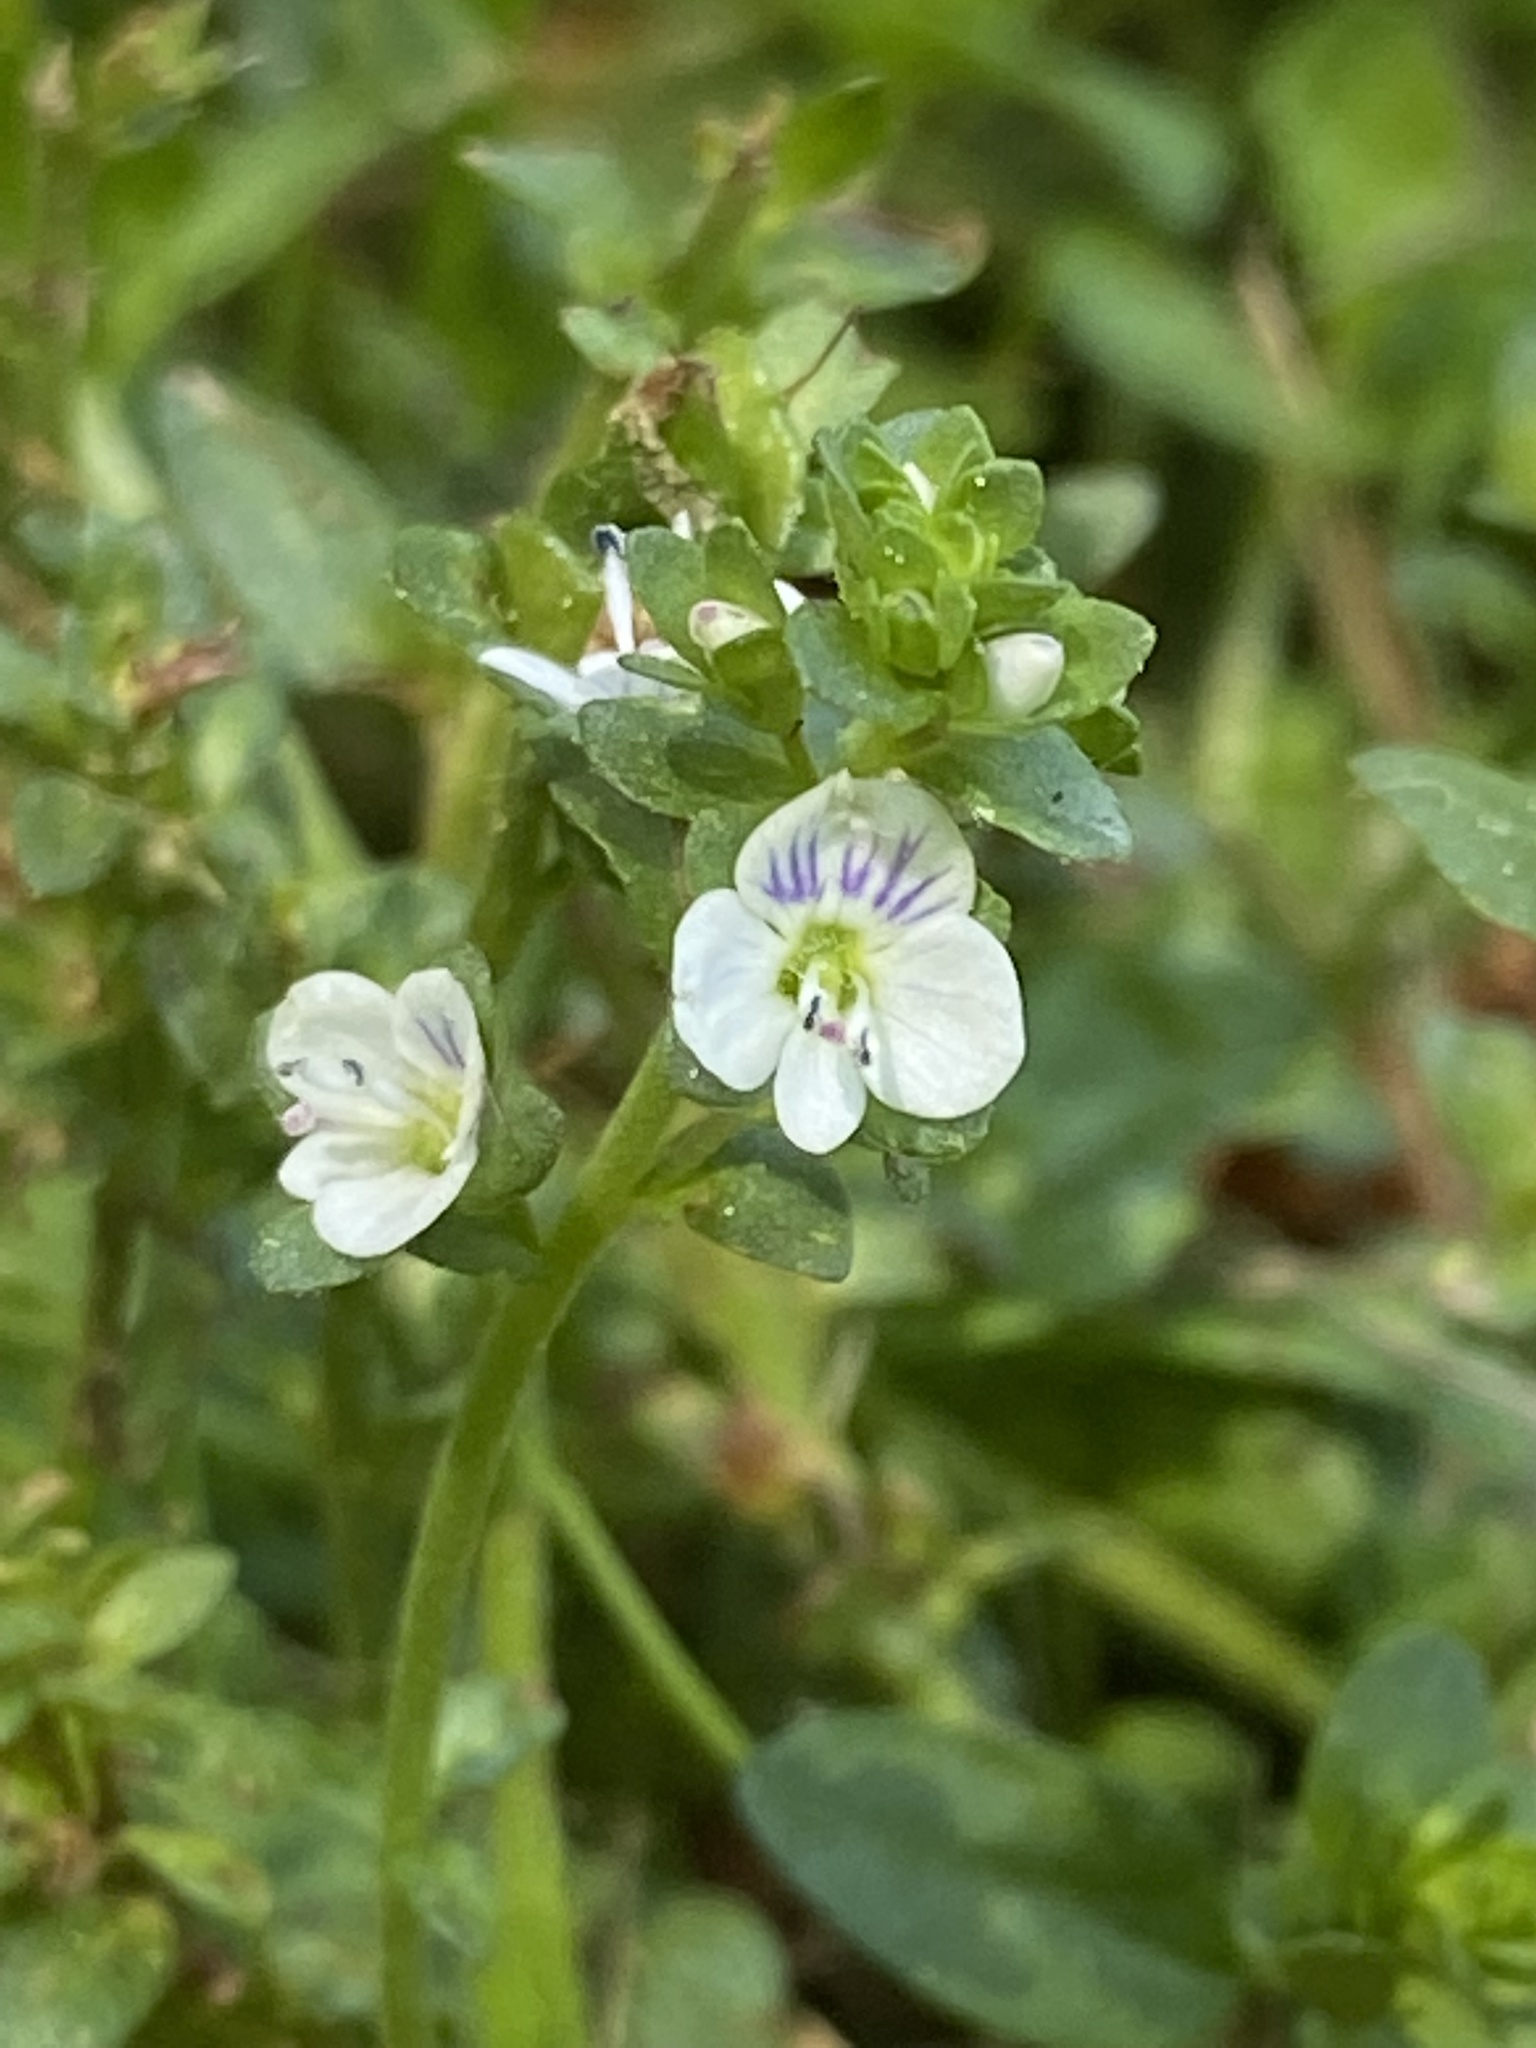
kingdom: Plantae
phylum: Tracheophyta
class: Magnoliopsida
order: Lamiales
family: Plantaginaceae
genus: Veronica
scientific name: Veronica serpyllifolia
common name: Thyme-leaved speedwell
